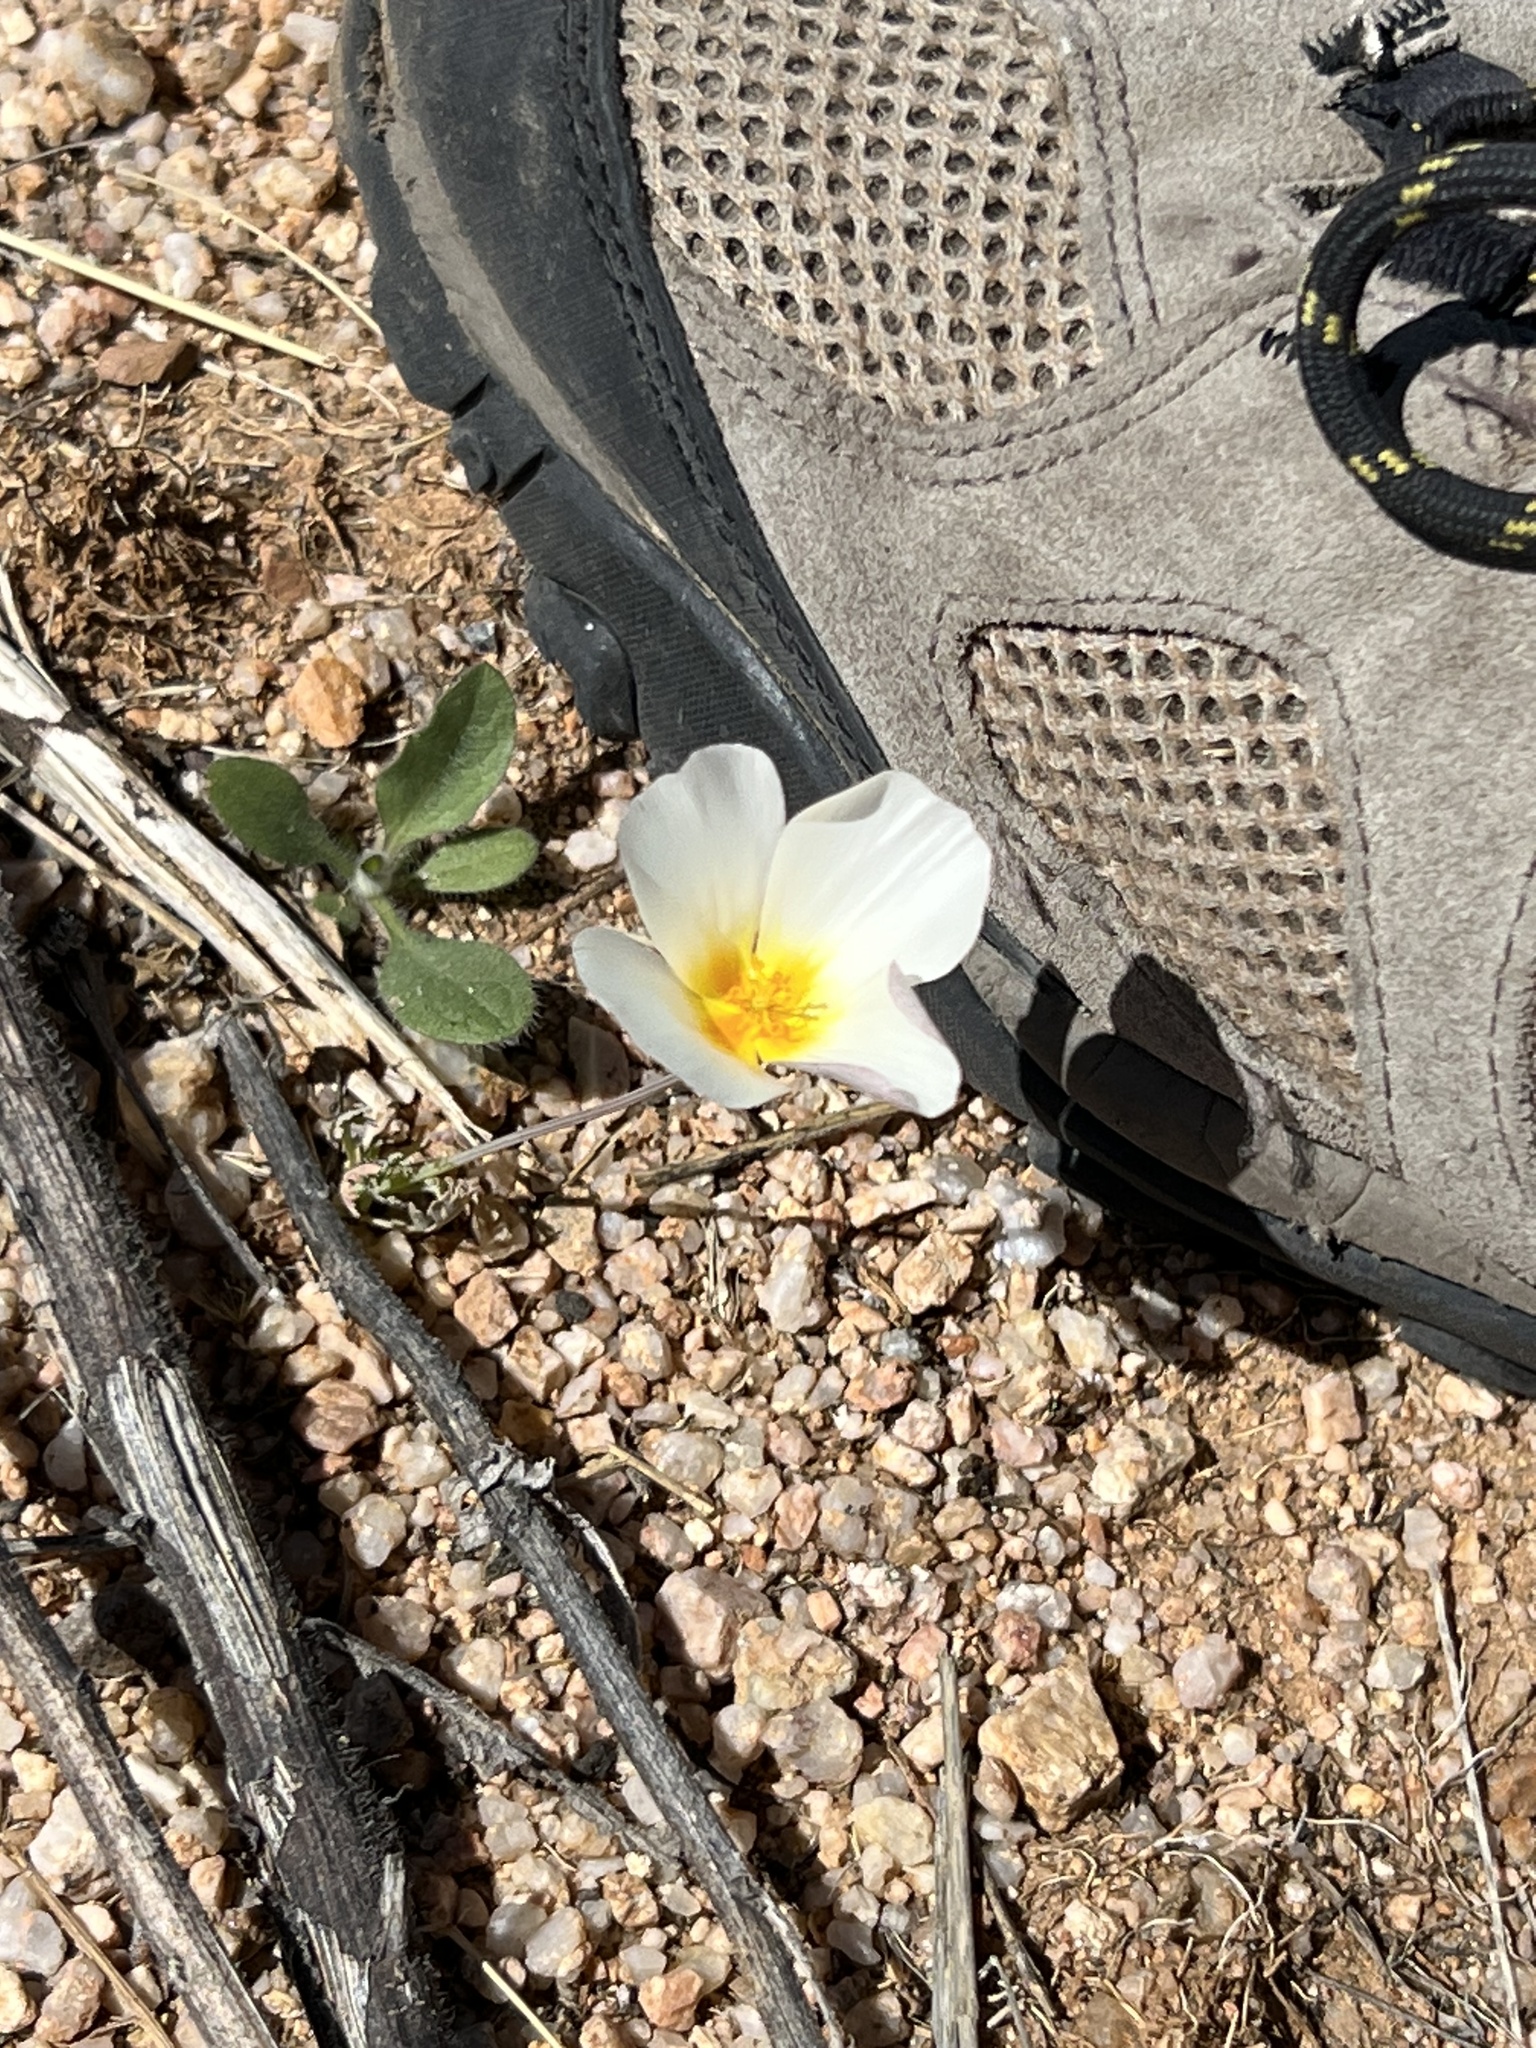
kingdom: Plantae
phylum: Tracheophyta
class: Magnoliopsida
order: Ranunculales
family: Papaveraceae
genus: Eschscholzia
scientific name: Eschscholzia californica
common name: California poppy
